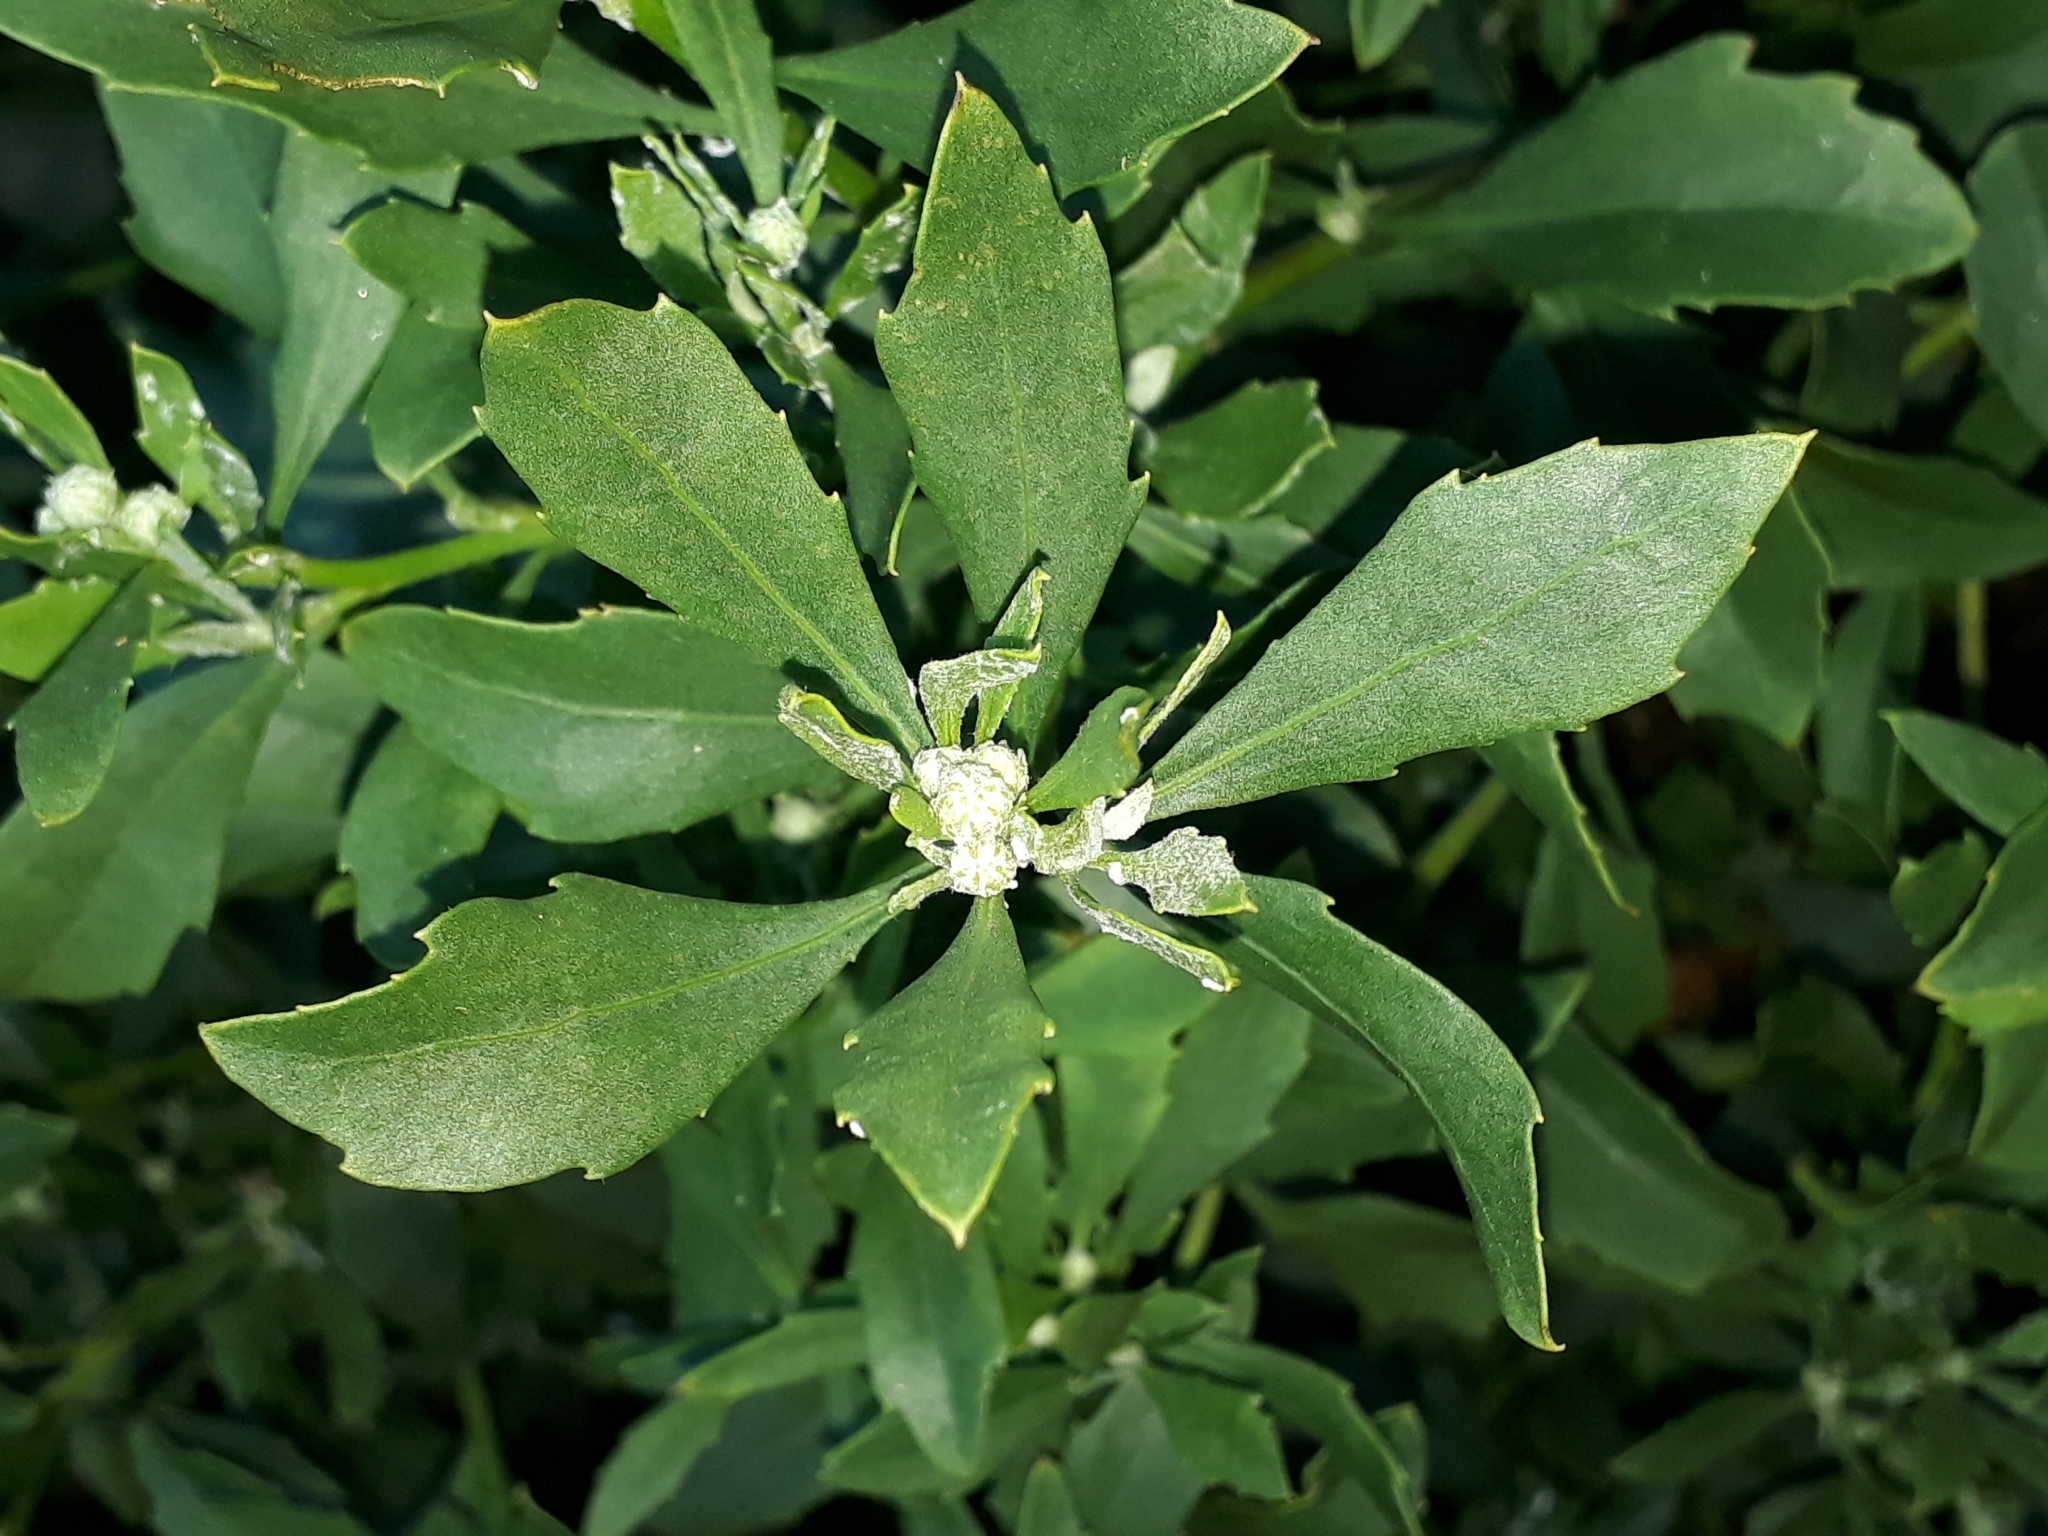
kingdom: Plantae
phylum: Tracheophyta
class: Magnoliopsida
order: Asterales
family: Asteraceae
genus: Osteospermum
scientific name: Osteospermum moniliferum
